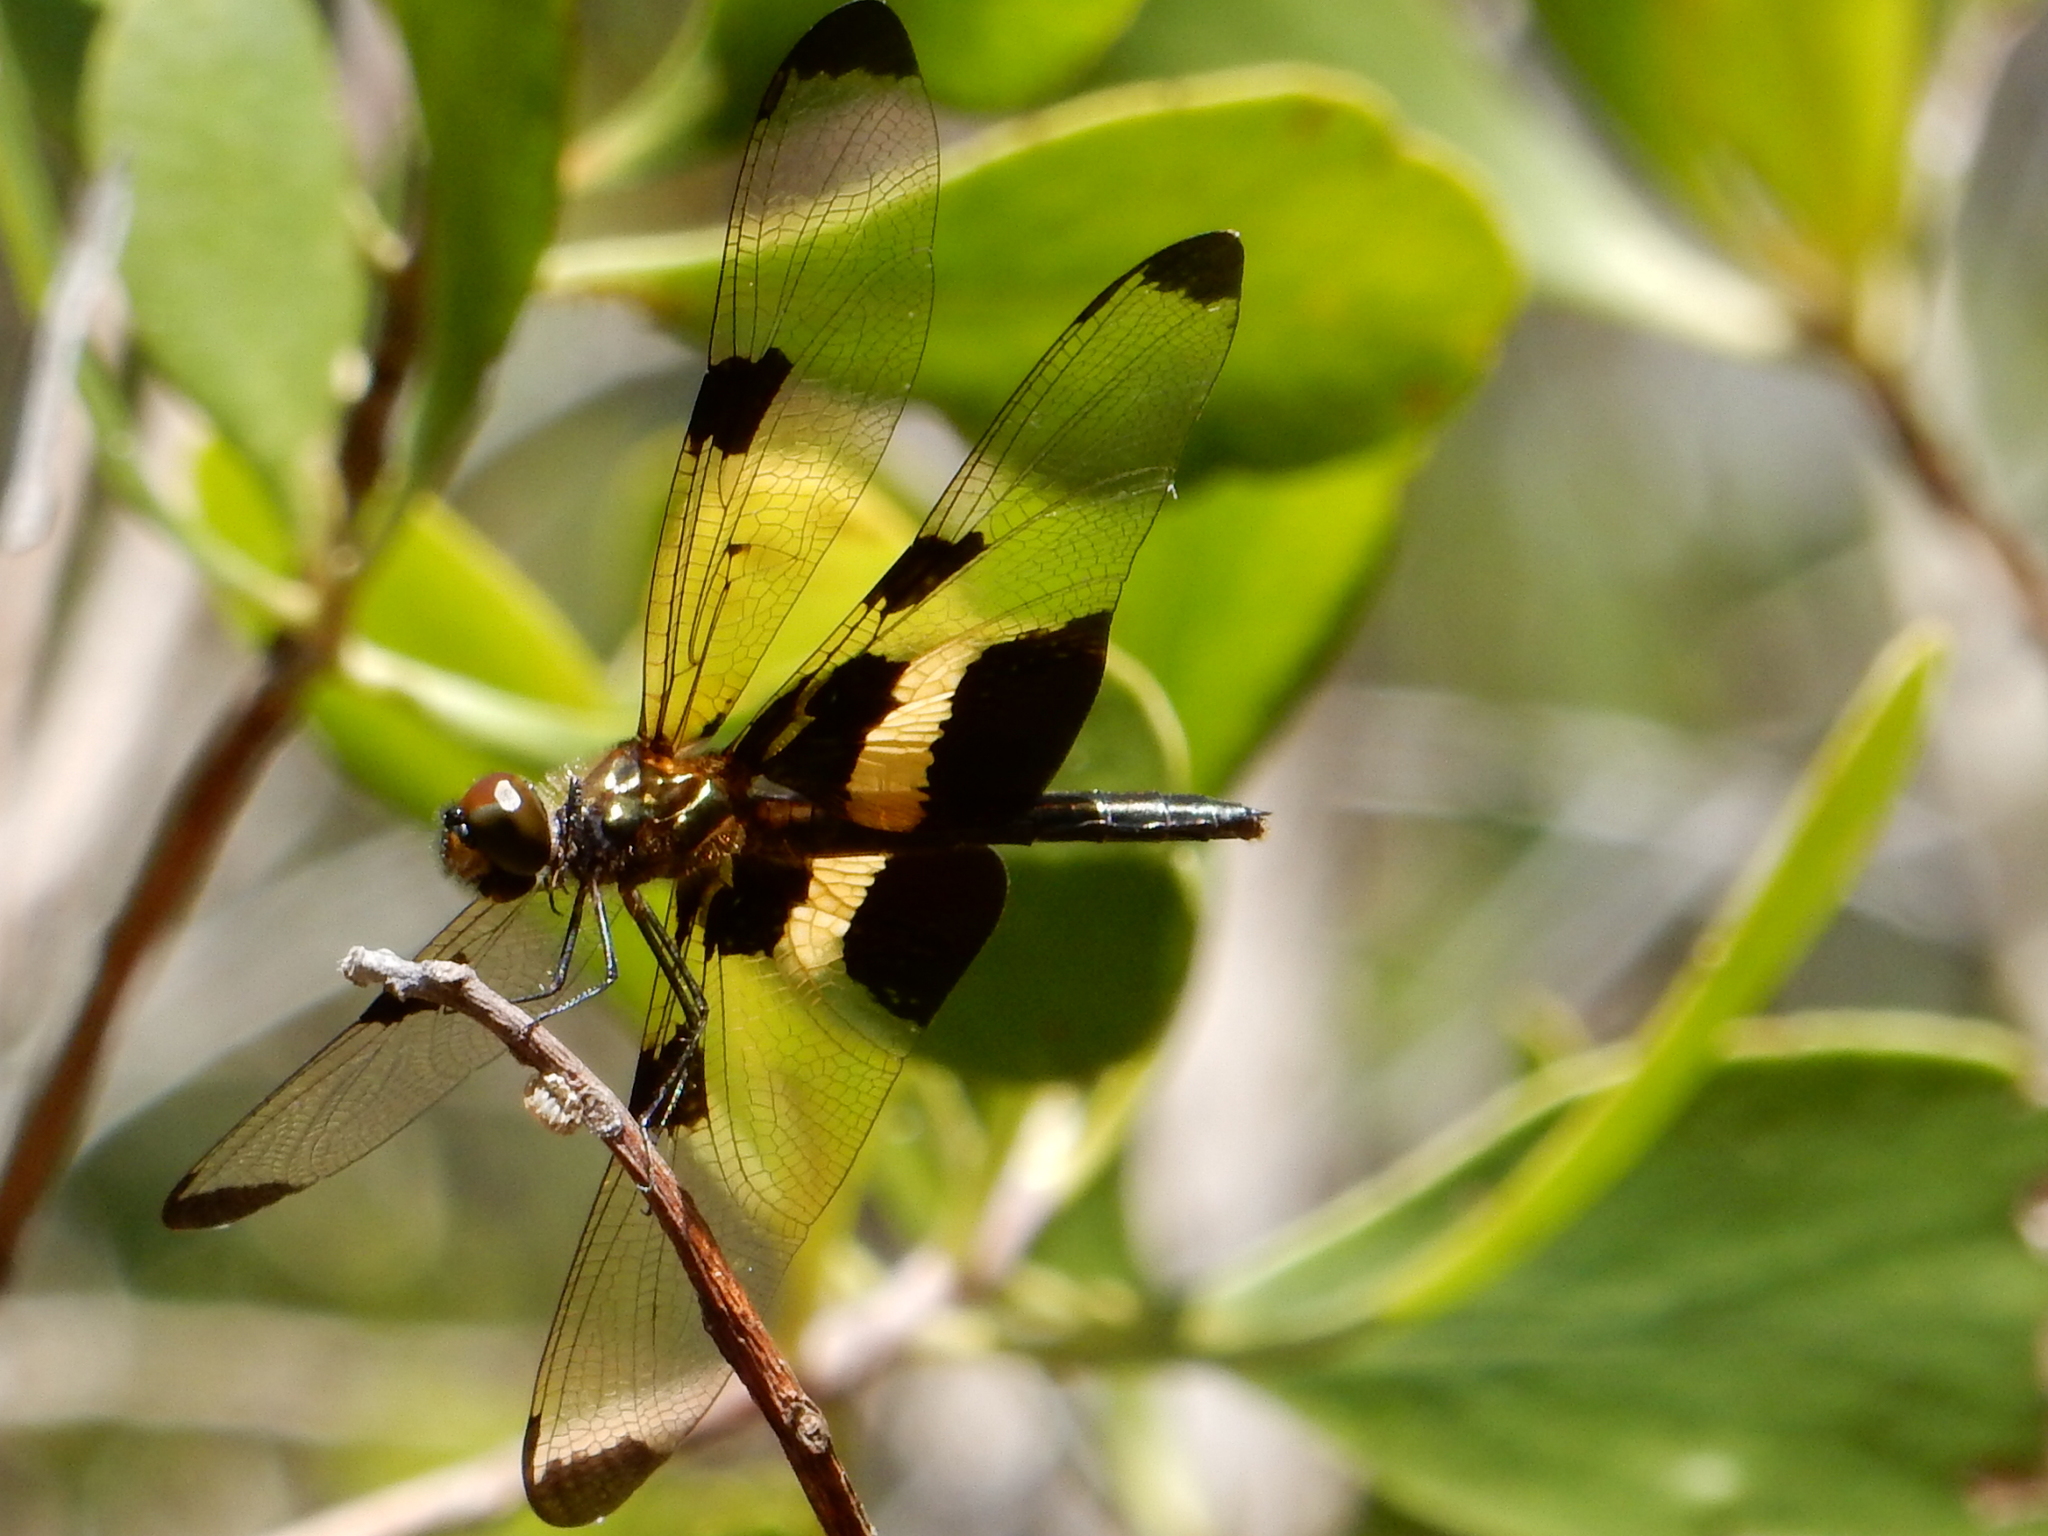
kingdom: Animalia
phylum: Arthropoda
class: Insecta
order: Odonata
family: Libellulidae
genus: Rhyothemis
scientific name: Rhyothemis phyllis
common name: Yellow-barred flutterer
